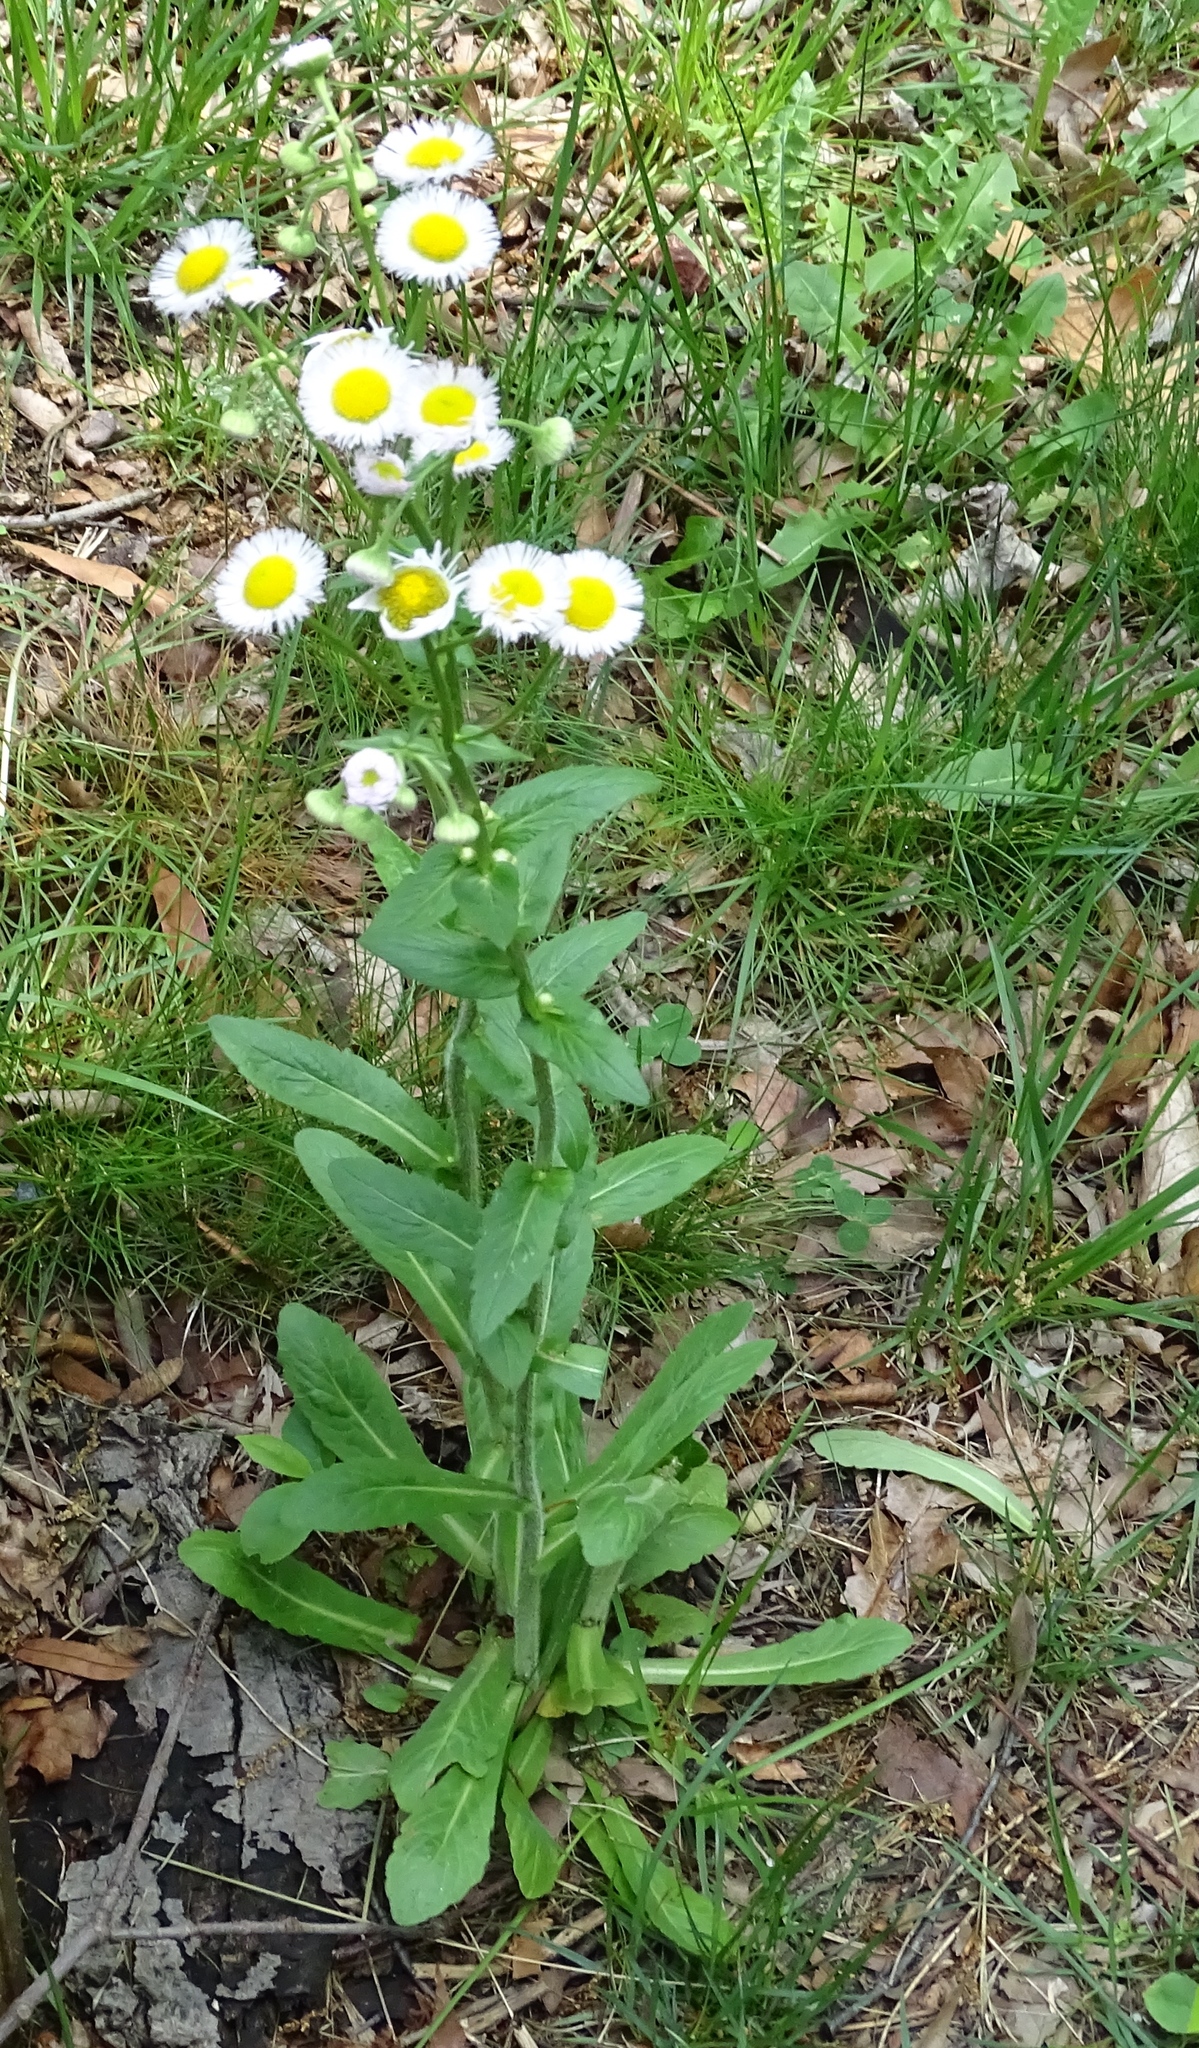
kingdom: Plantae
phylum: Tracheophyta
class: Magnoliopsida
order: Asterales
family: Asteraceae
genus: Erigeron
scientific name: Erigeron philadelphicus
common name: Robin's-plantain
